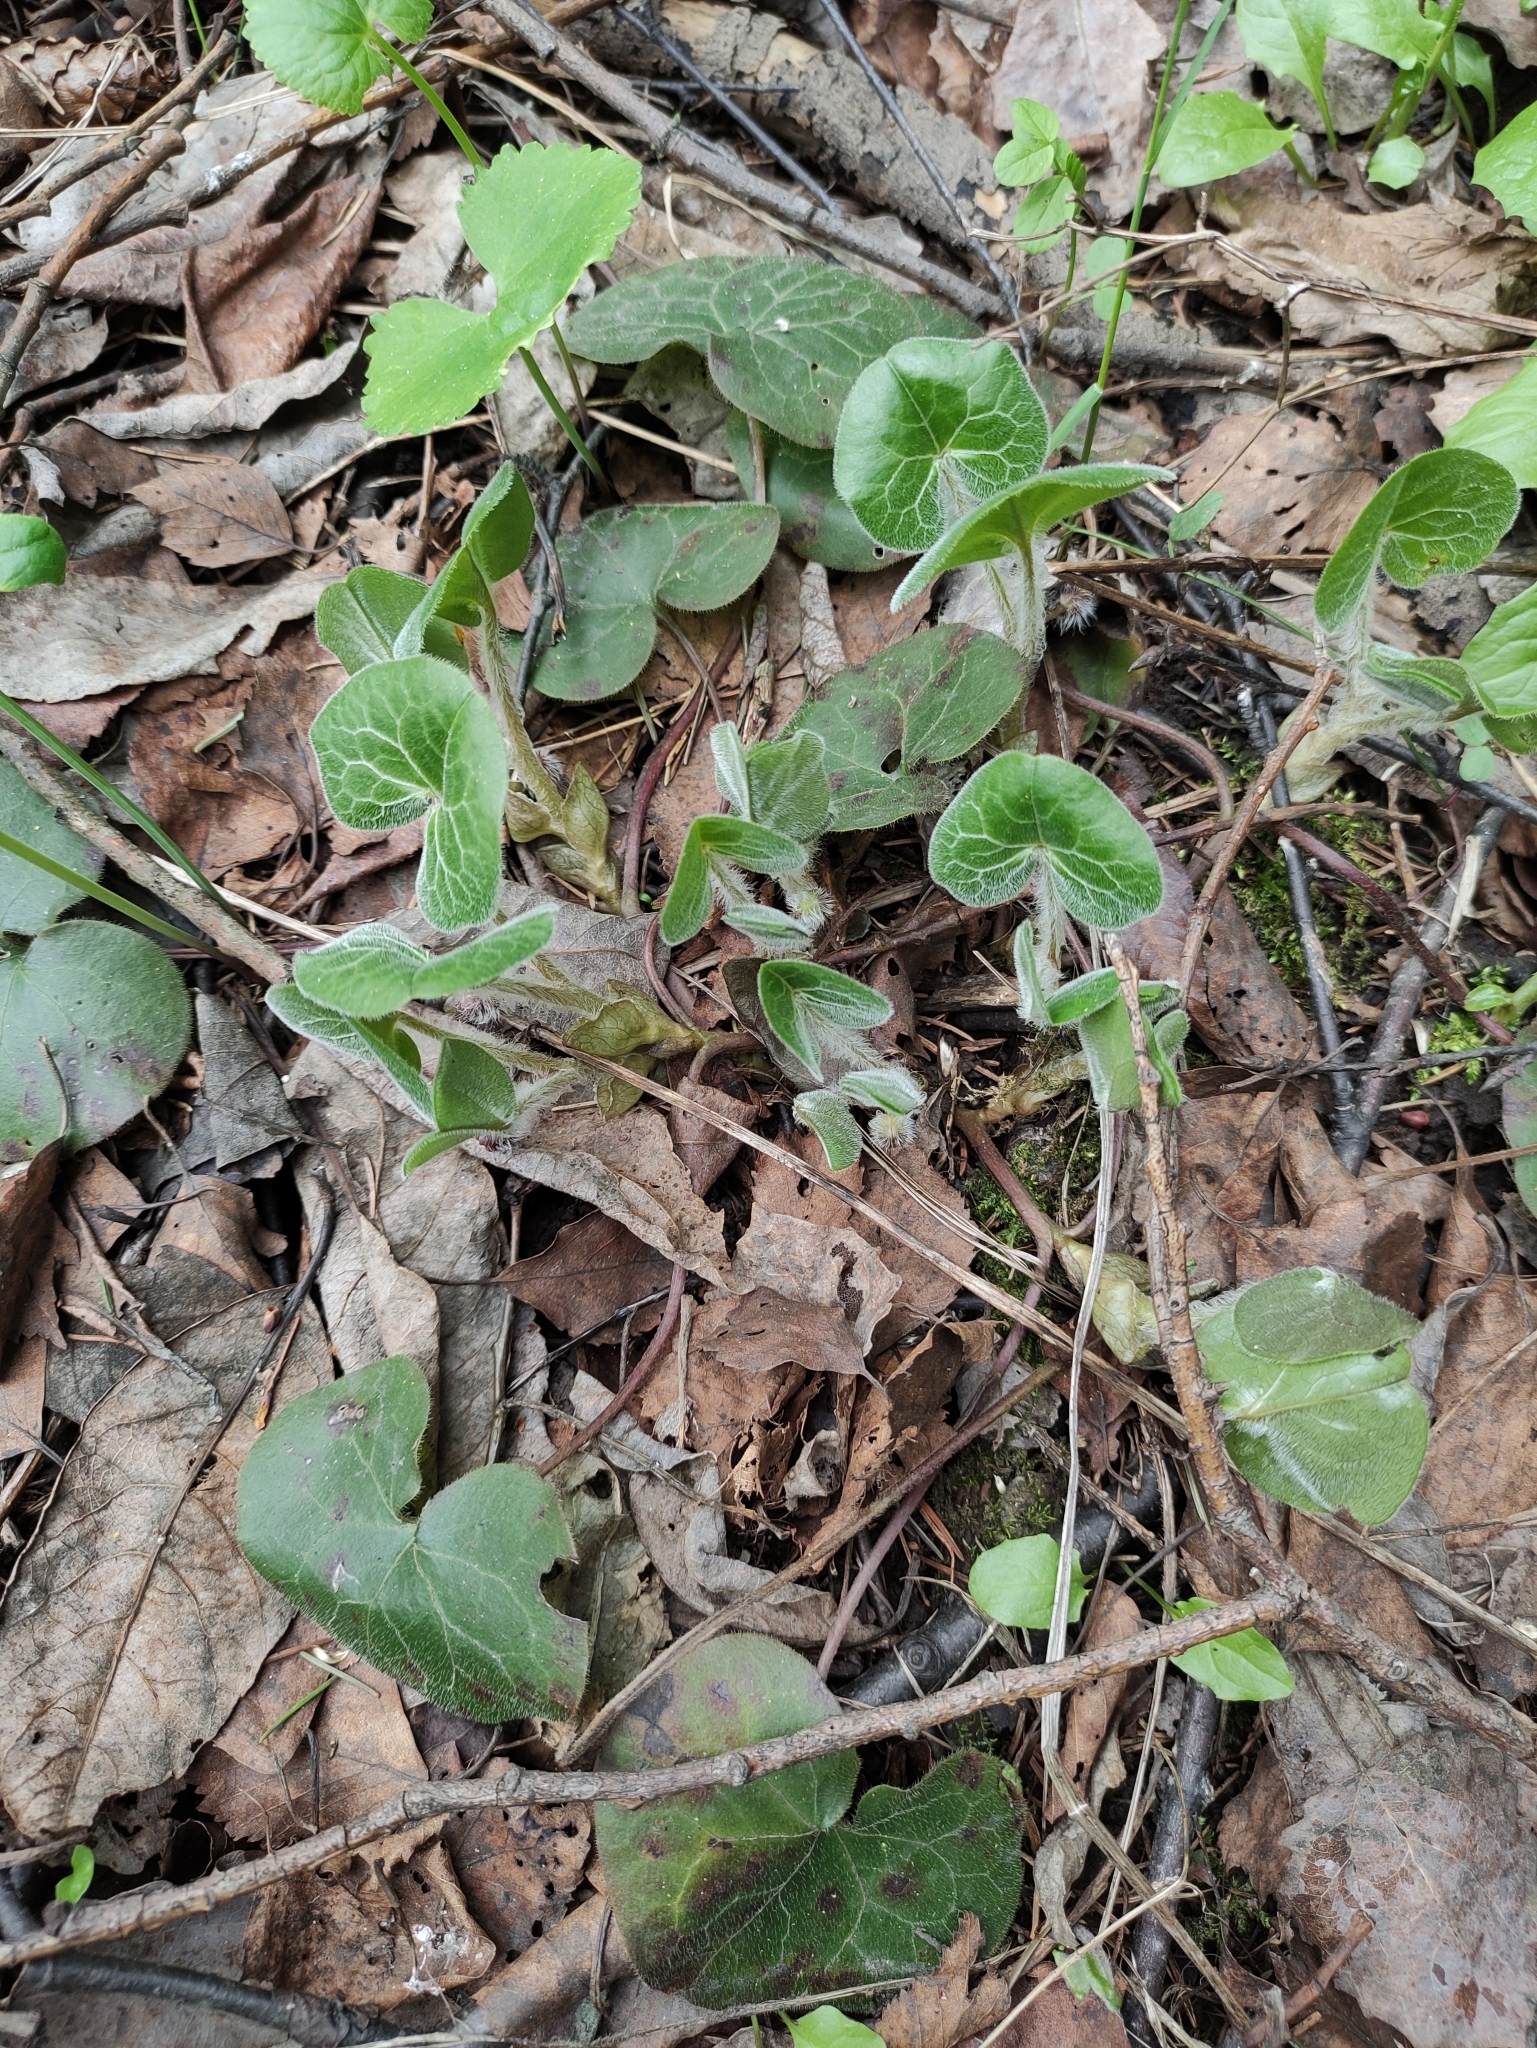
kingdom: Plantae
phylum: Tracheophyta
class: Magnoliopsida
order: Piperales
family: Aristolochiaceae
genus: Asarum
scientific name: Asarum europaeum
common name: Asarabacca
